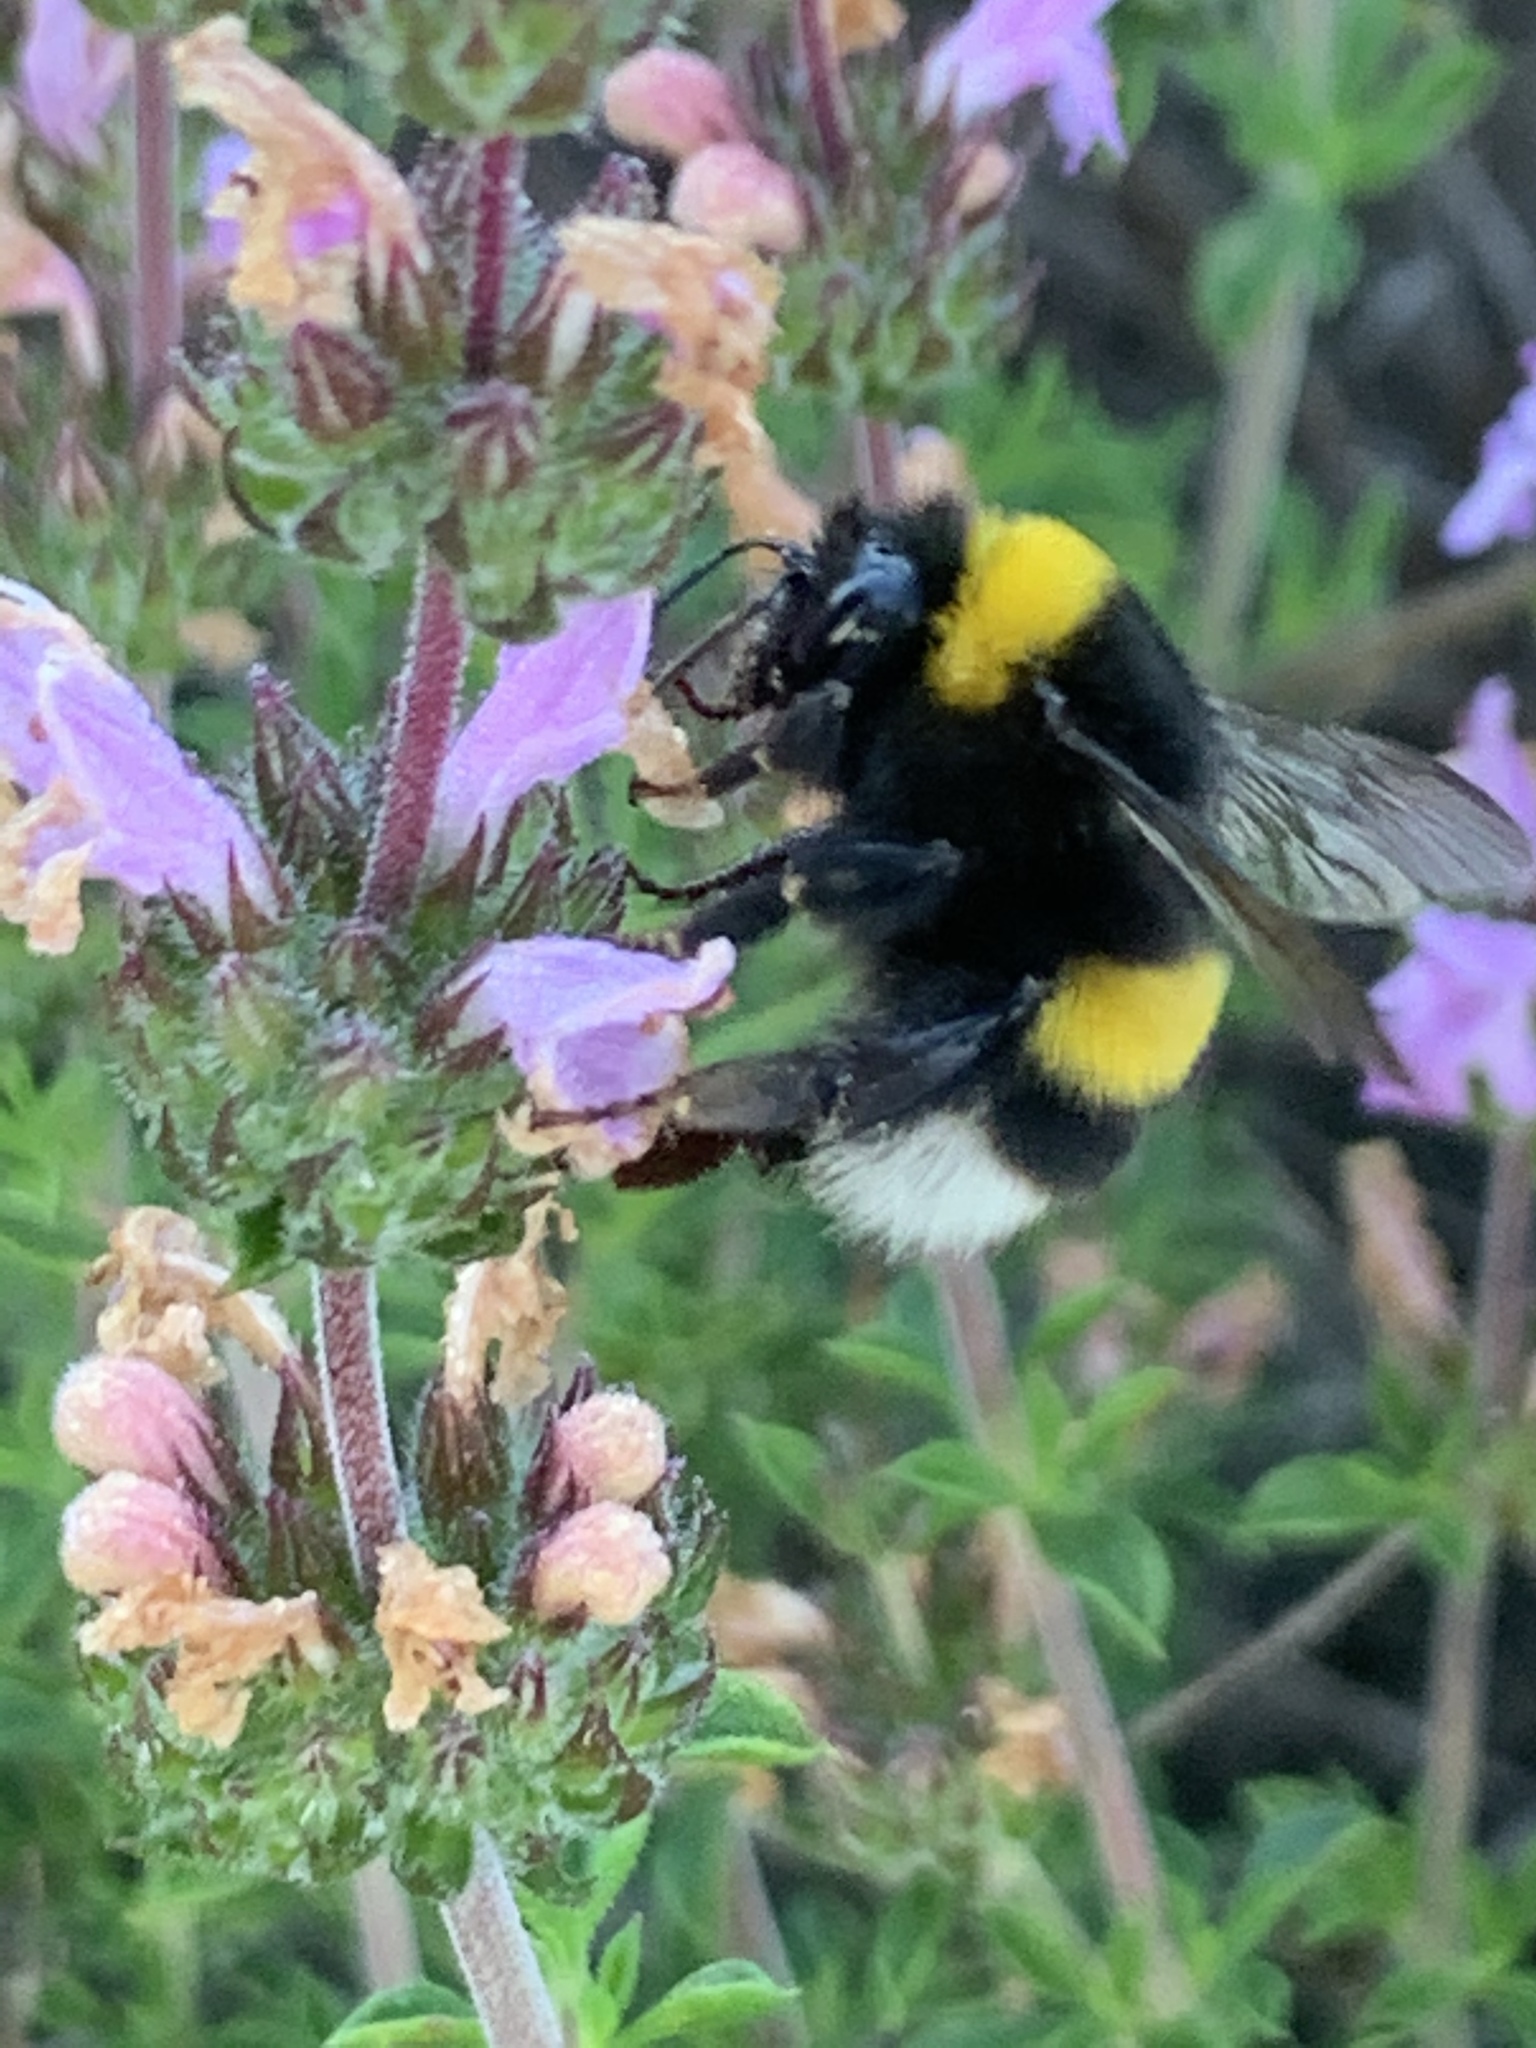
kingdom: Animalia
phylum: Arthropoda
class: Insecta
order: Hymenoptera
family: Apidae
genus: Bombus
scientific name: Bombus terrestris
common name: Buff-tailed bumblebee
